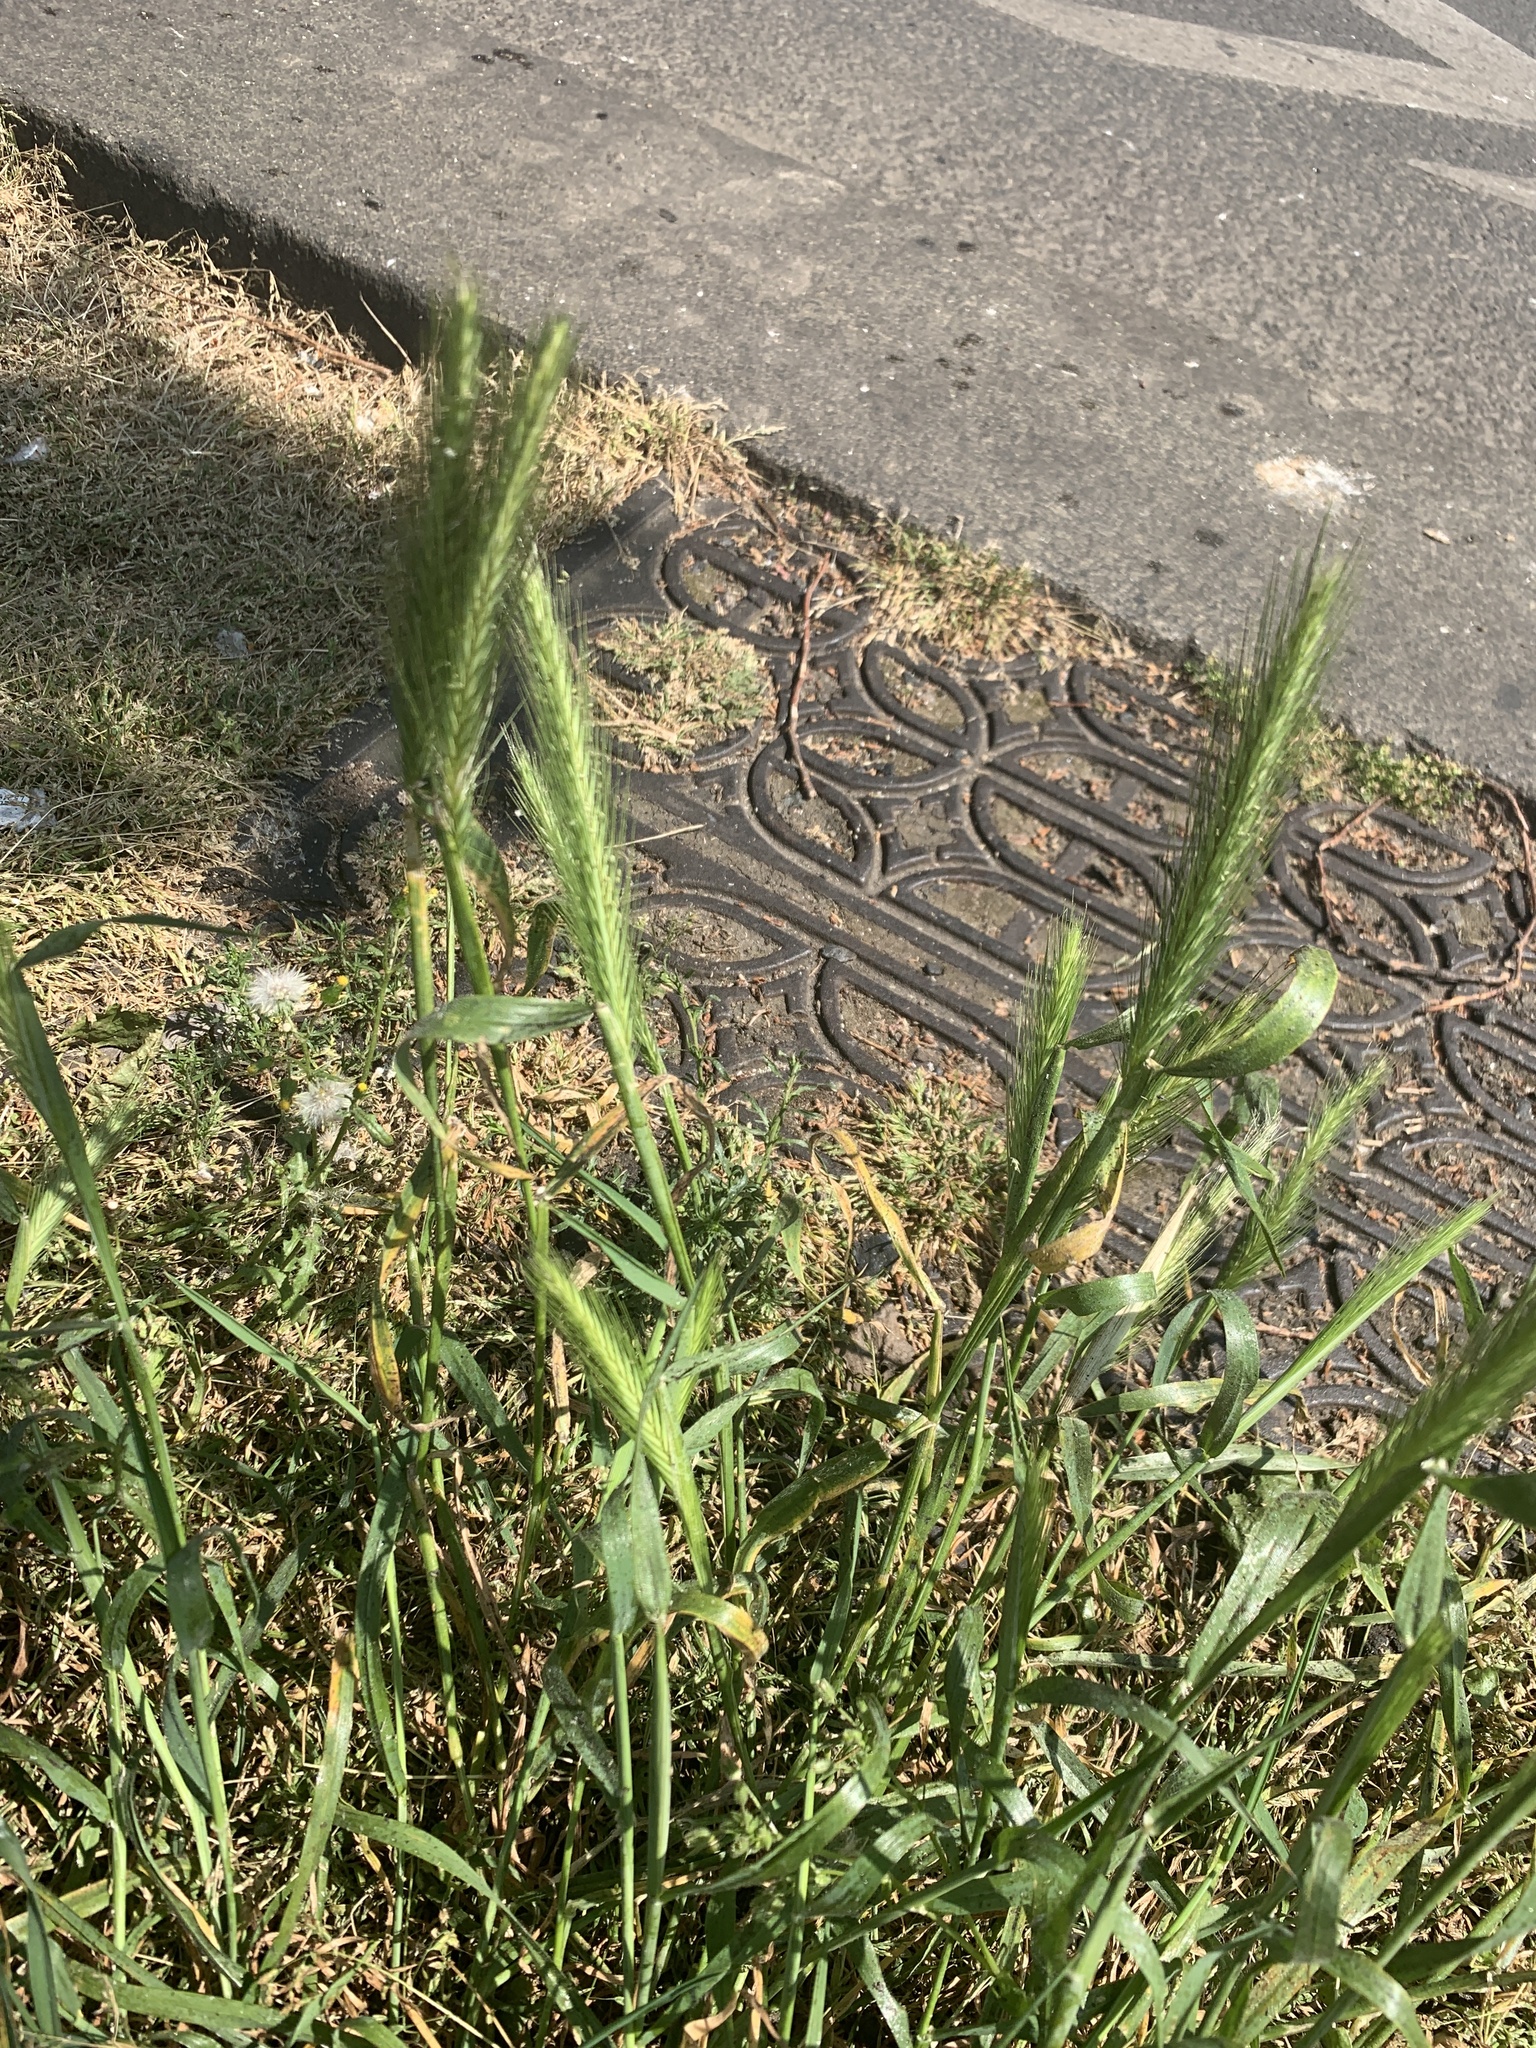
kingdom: Plantae
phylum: Tracheophyta
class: Liliopsida
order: Poales
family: Poaceae
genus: Hordeum
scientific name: Hordeum murinum
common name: Wall barley
